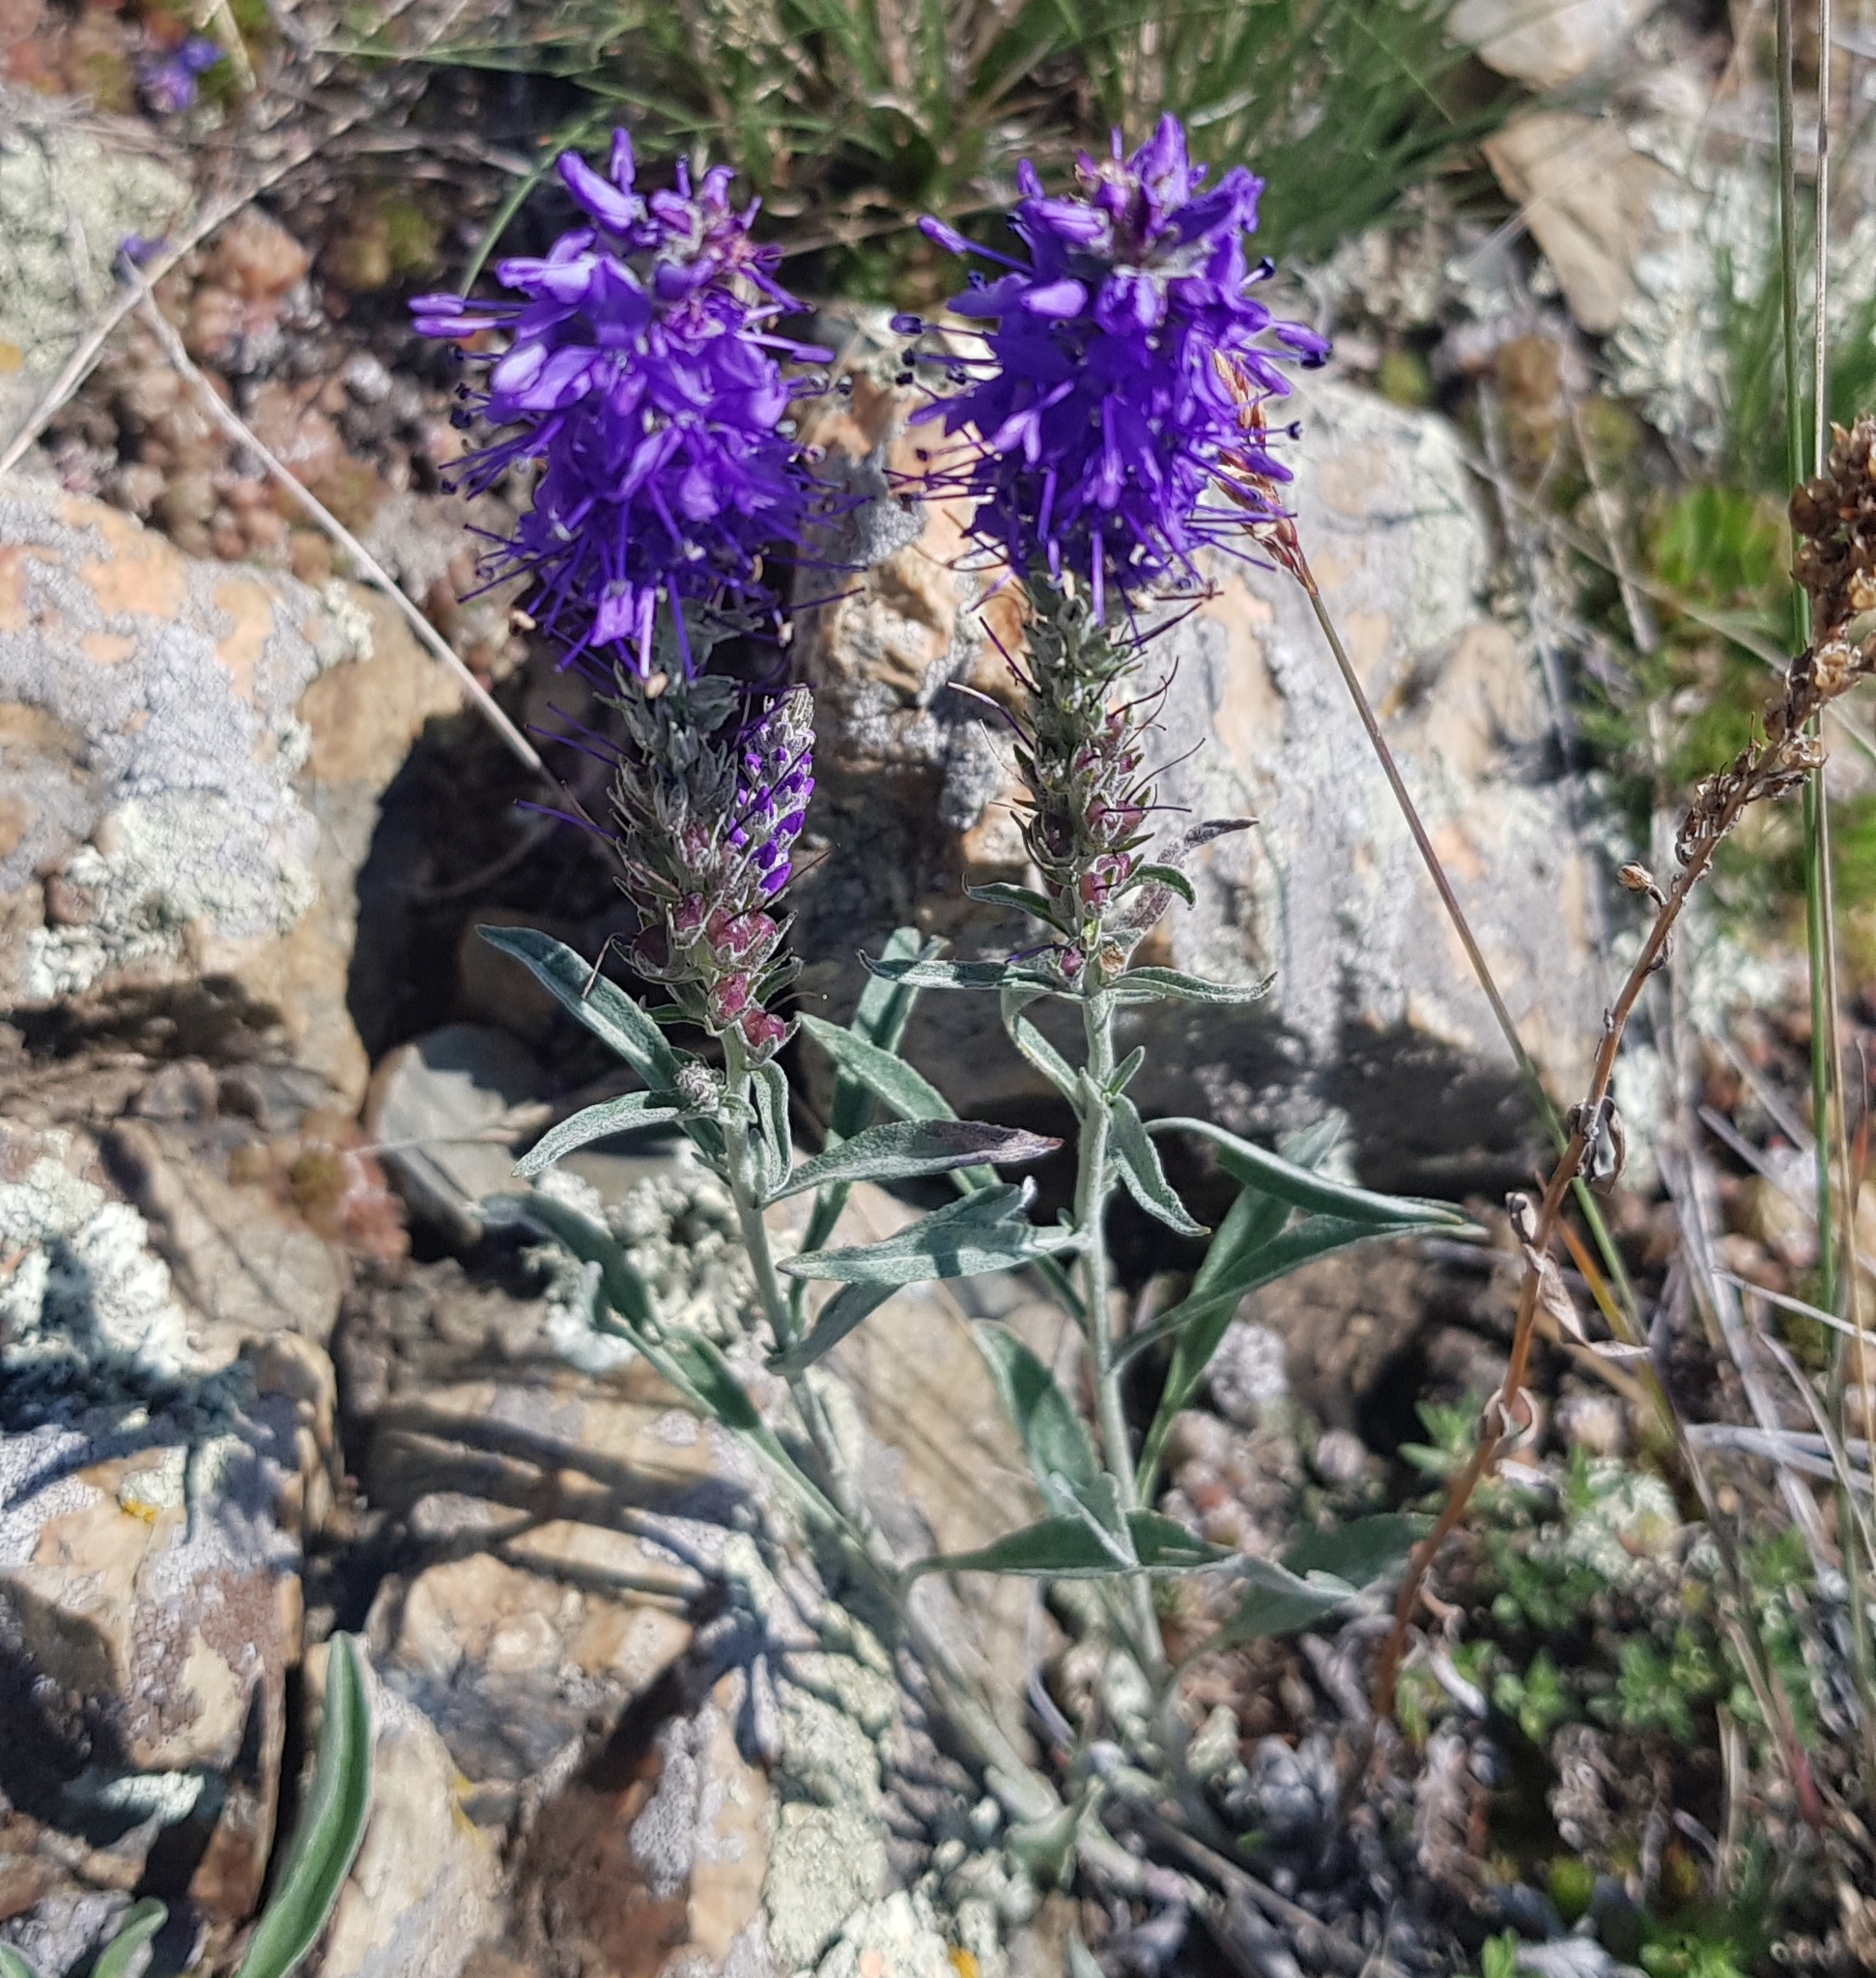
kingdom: Plantae
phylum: Tracheophyta
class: Magnoliopsida
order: Lamiales
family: Plantaginaceae
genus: Veronica
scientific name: Veronica incana
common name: Silver speedwell
